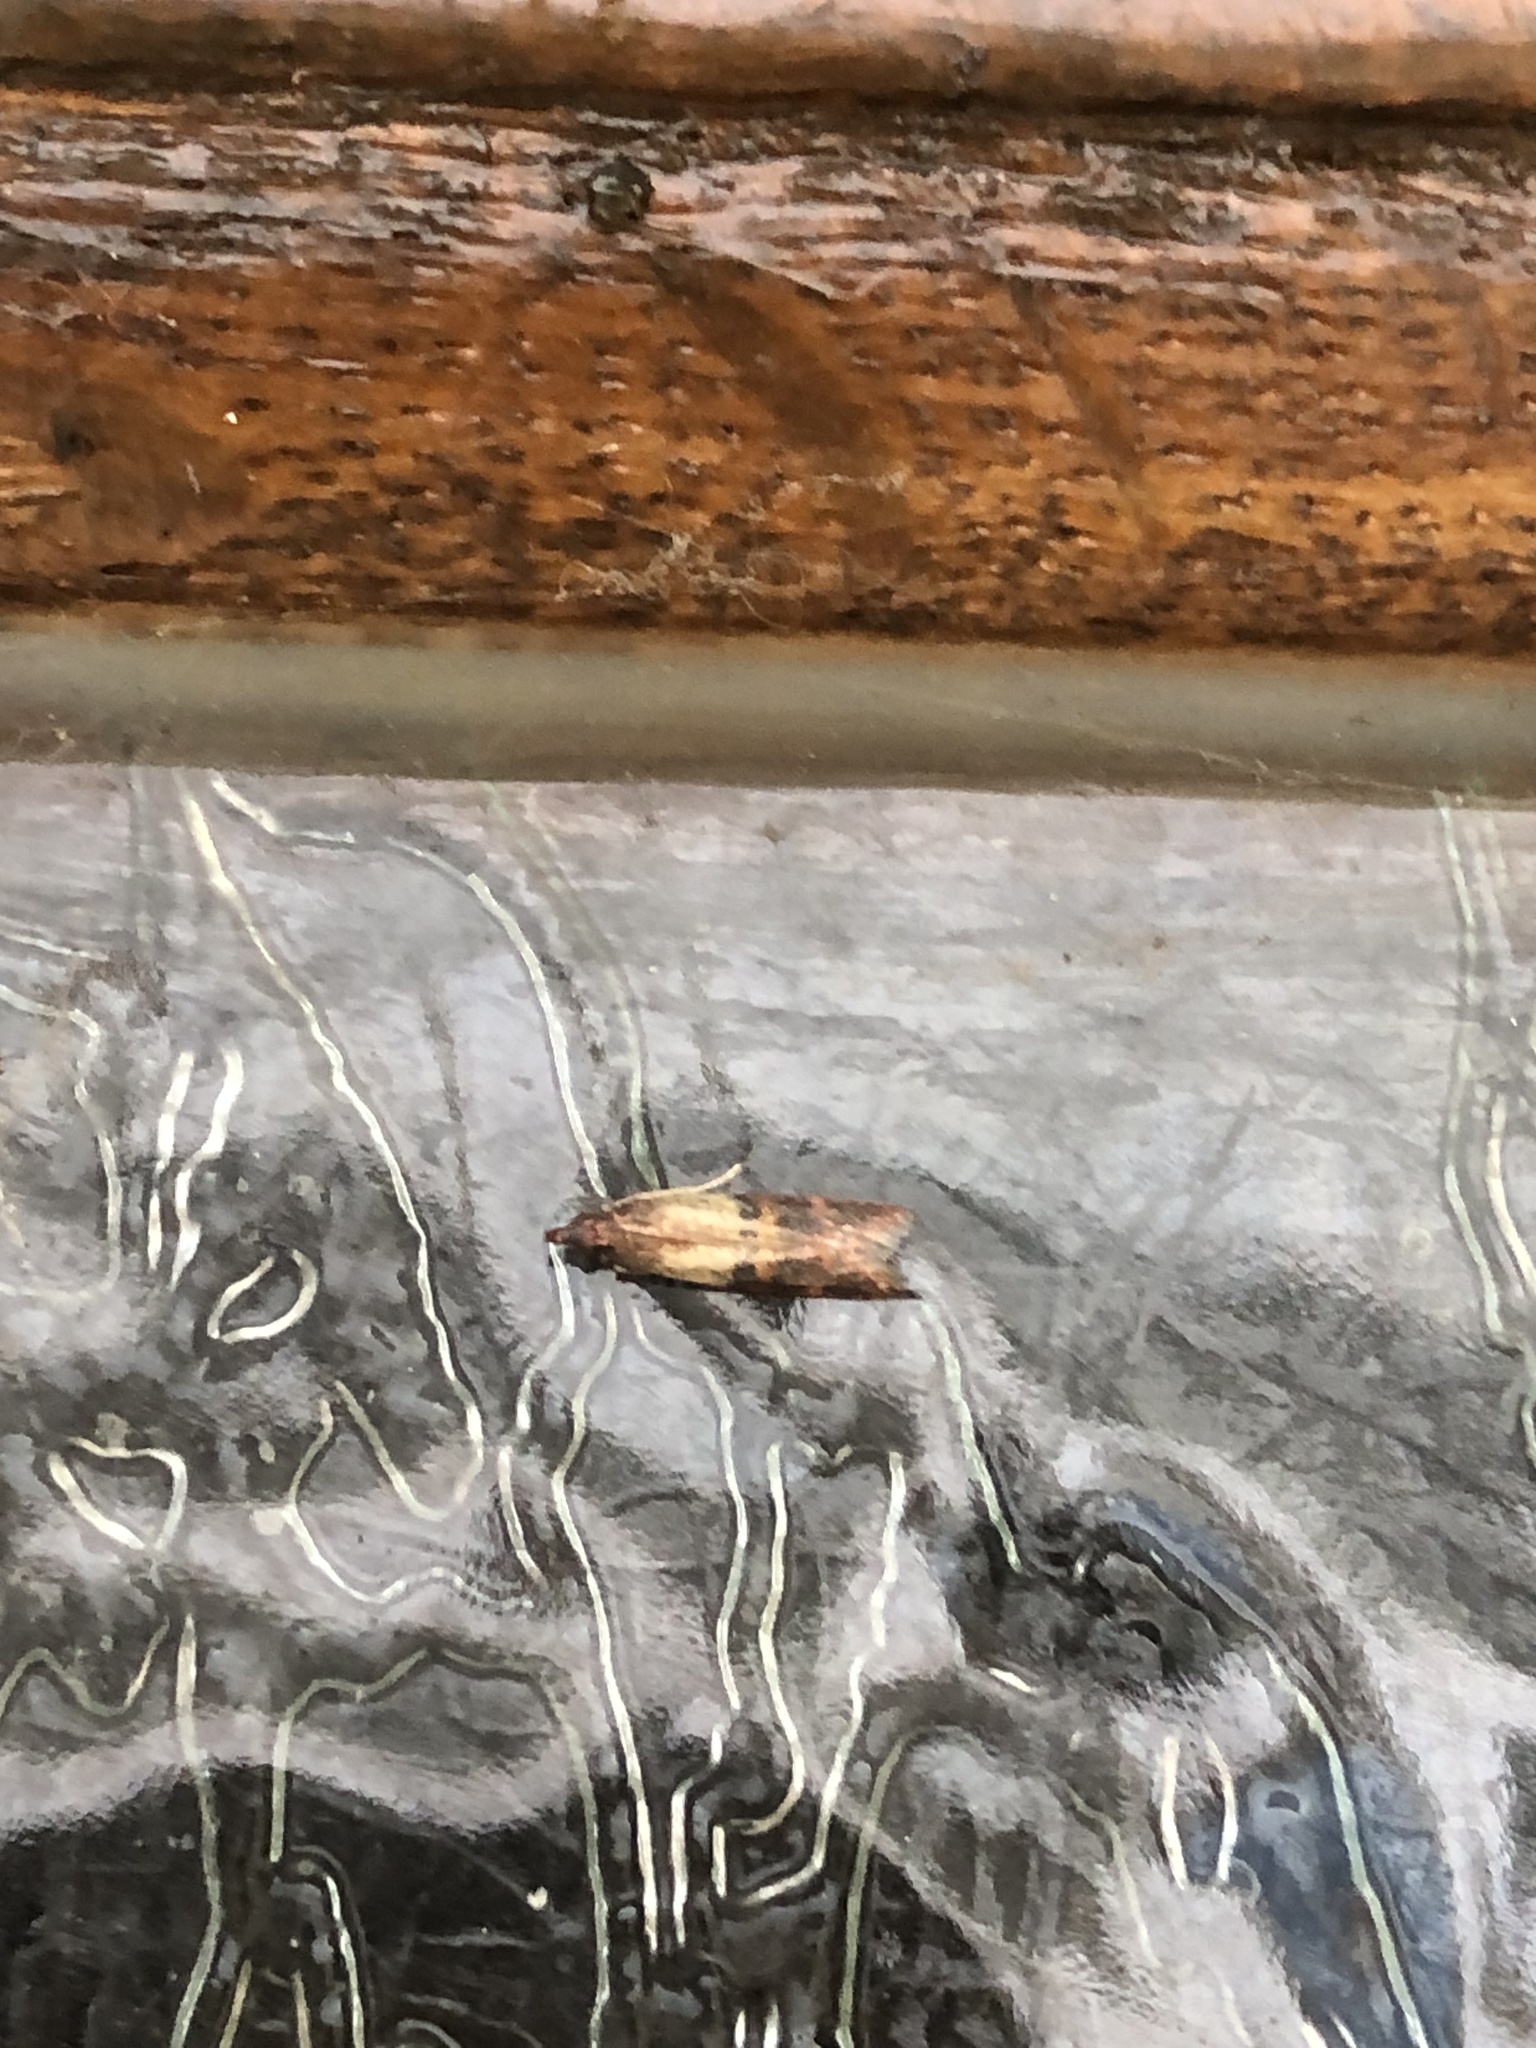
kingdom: Animalia
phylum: Arthropoda
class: Insecta
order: Lepidoptera
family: Pyralidae
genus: Plodia
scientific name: Plodia interpunctella
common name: Indian meal moth
